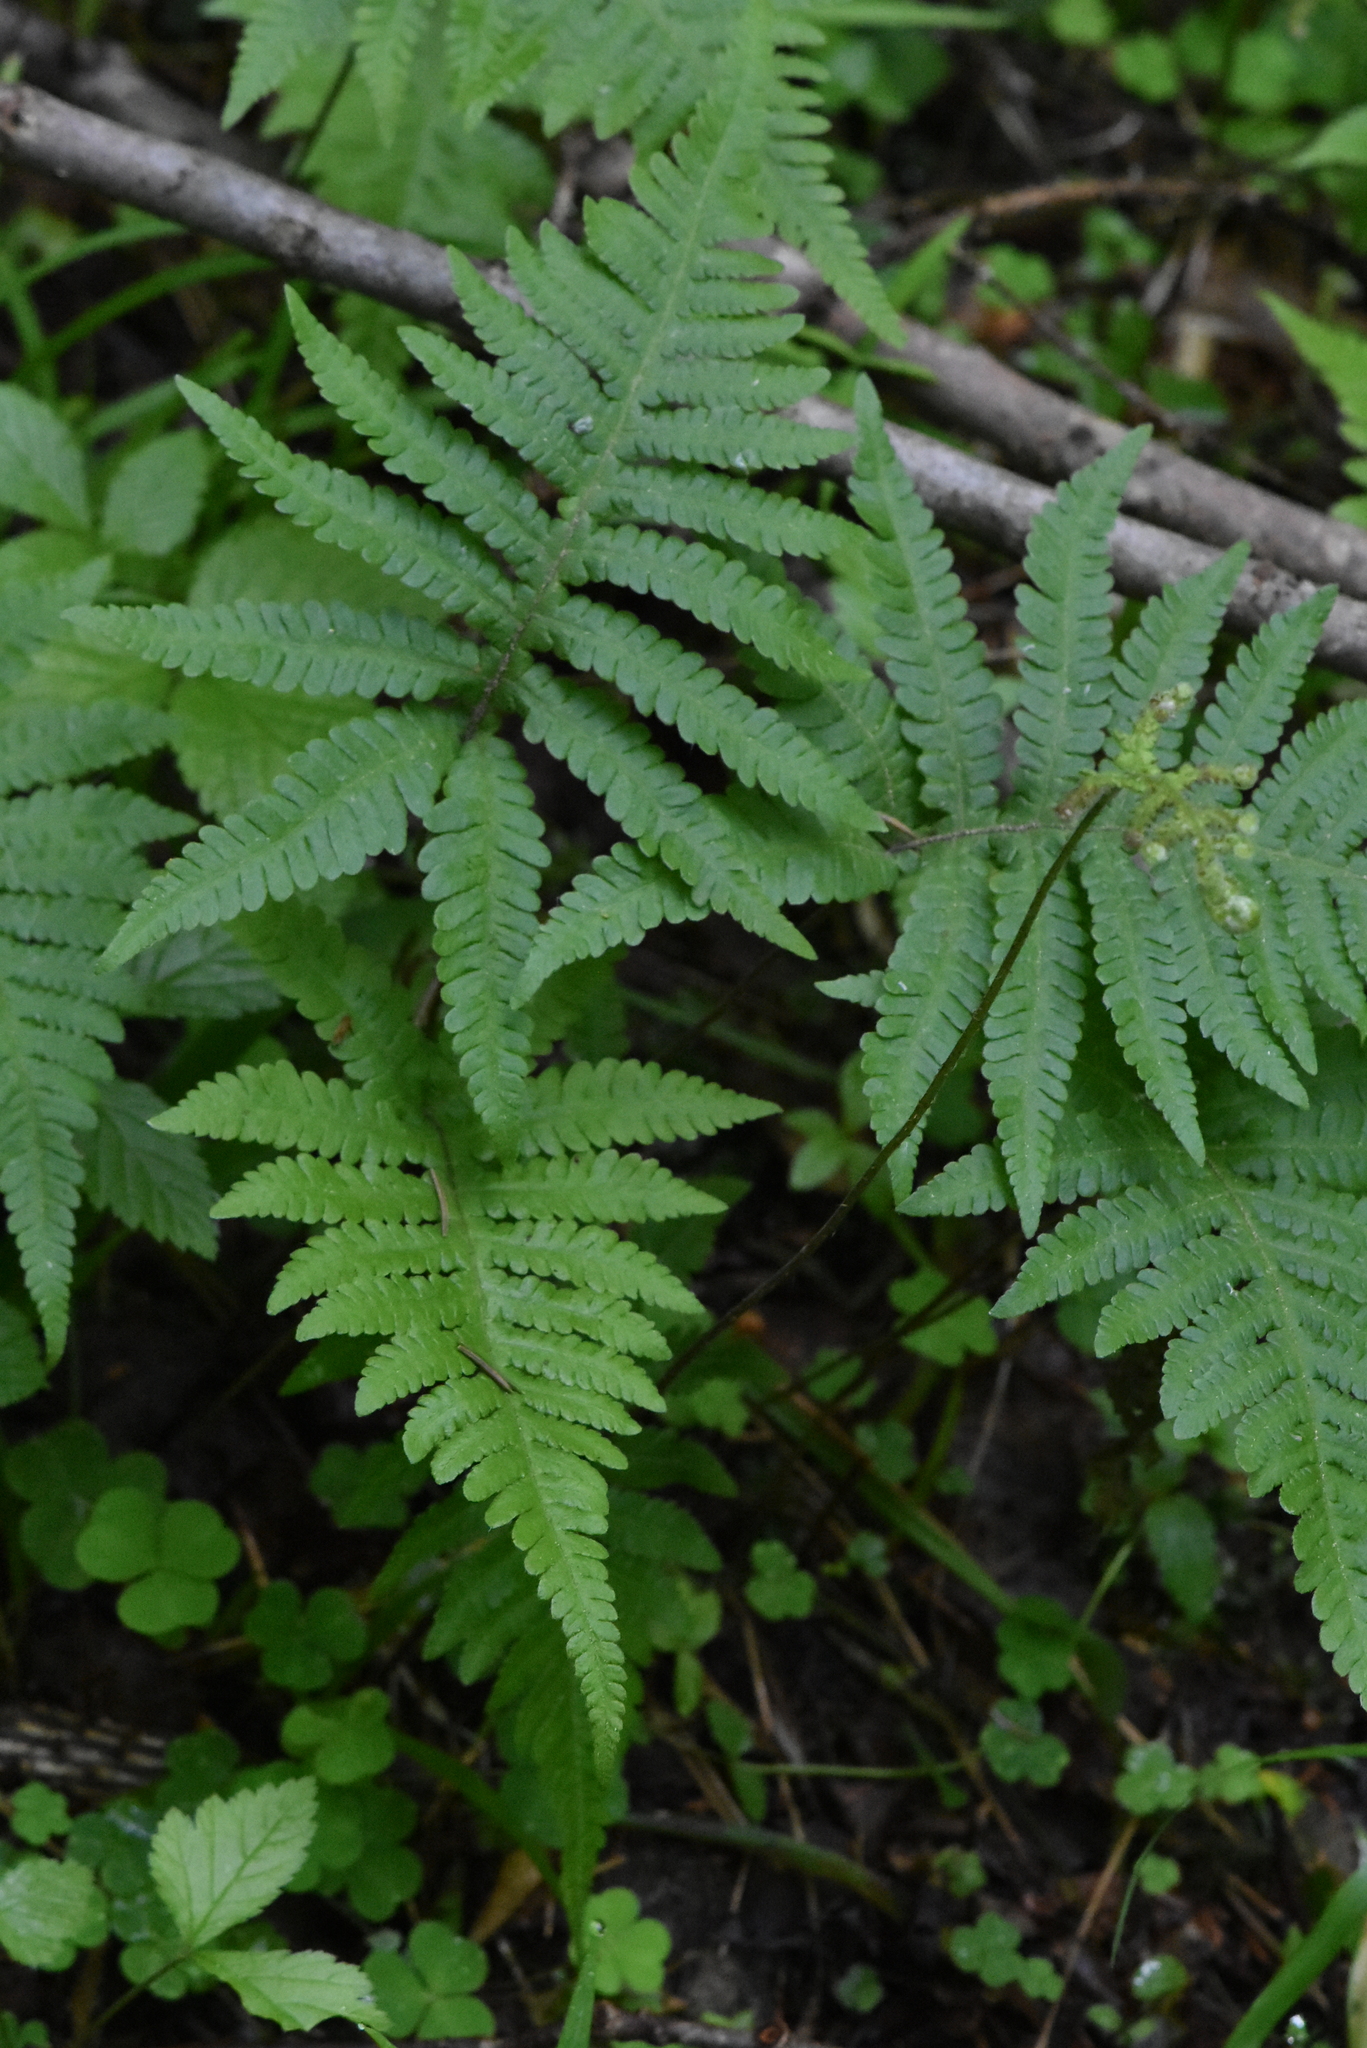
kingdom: Plantae
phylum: Tracheophyta
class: Polypodiopsida
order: Polypodiales
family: Thelypteridaceae
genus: Phegopteris
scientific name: Phegopteris connectilis
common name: Beech fern
